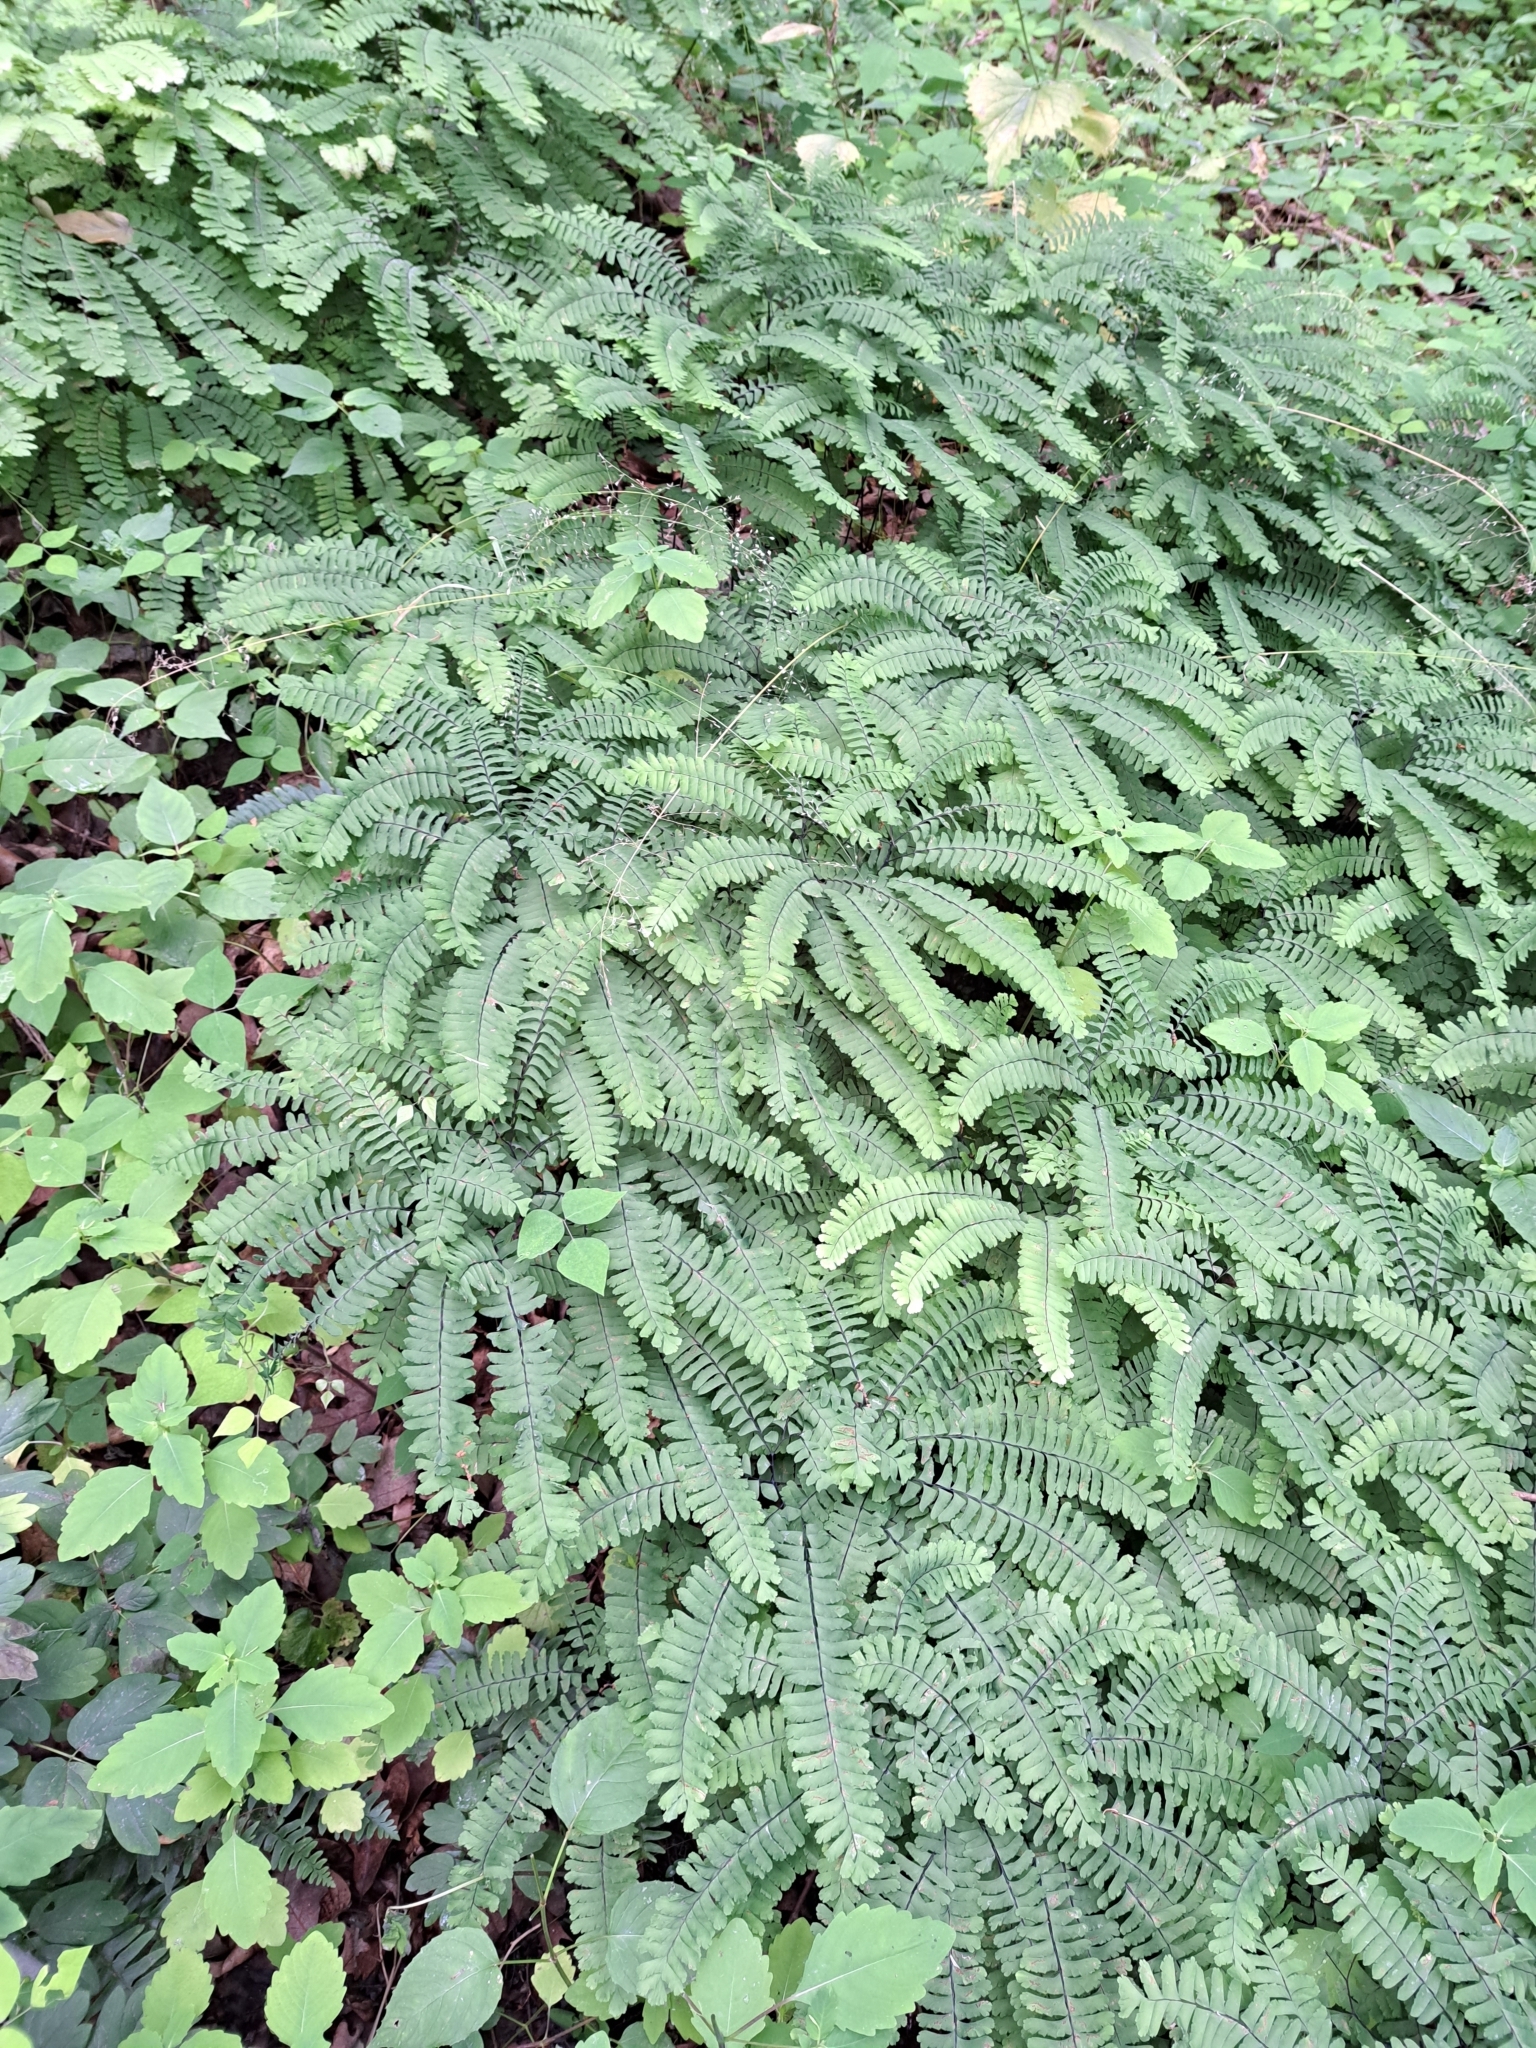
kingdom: Plantae
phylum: Tracheophyta
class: Polypodiopsida
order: Polypodiales
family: Pteridaceae
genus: Adiantum
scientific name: Adiantum pedatum
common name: Five-finger fern
